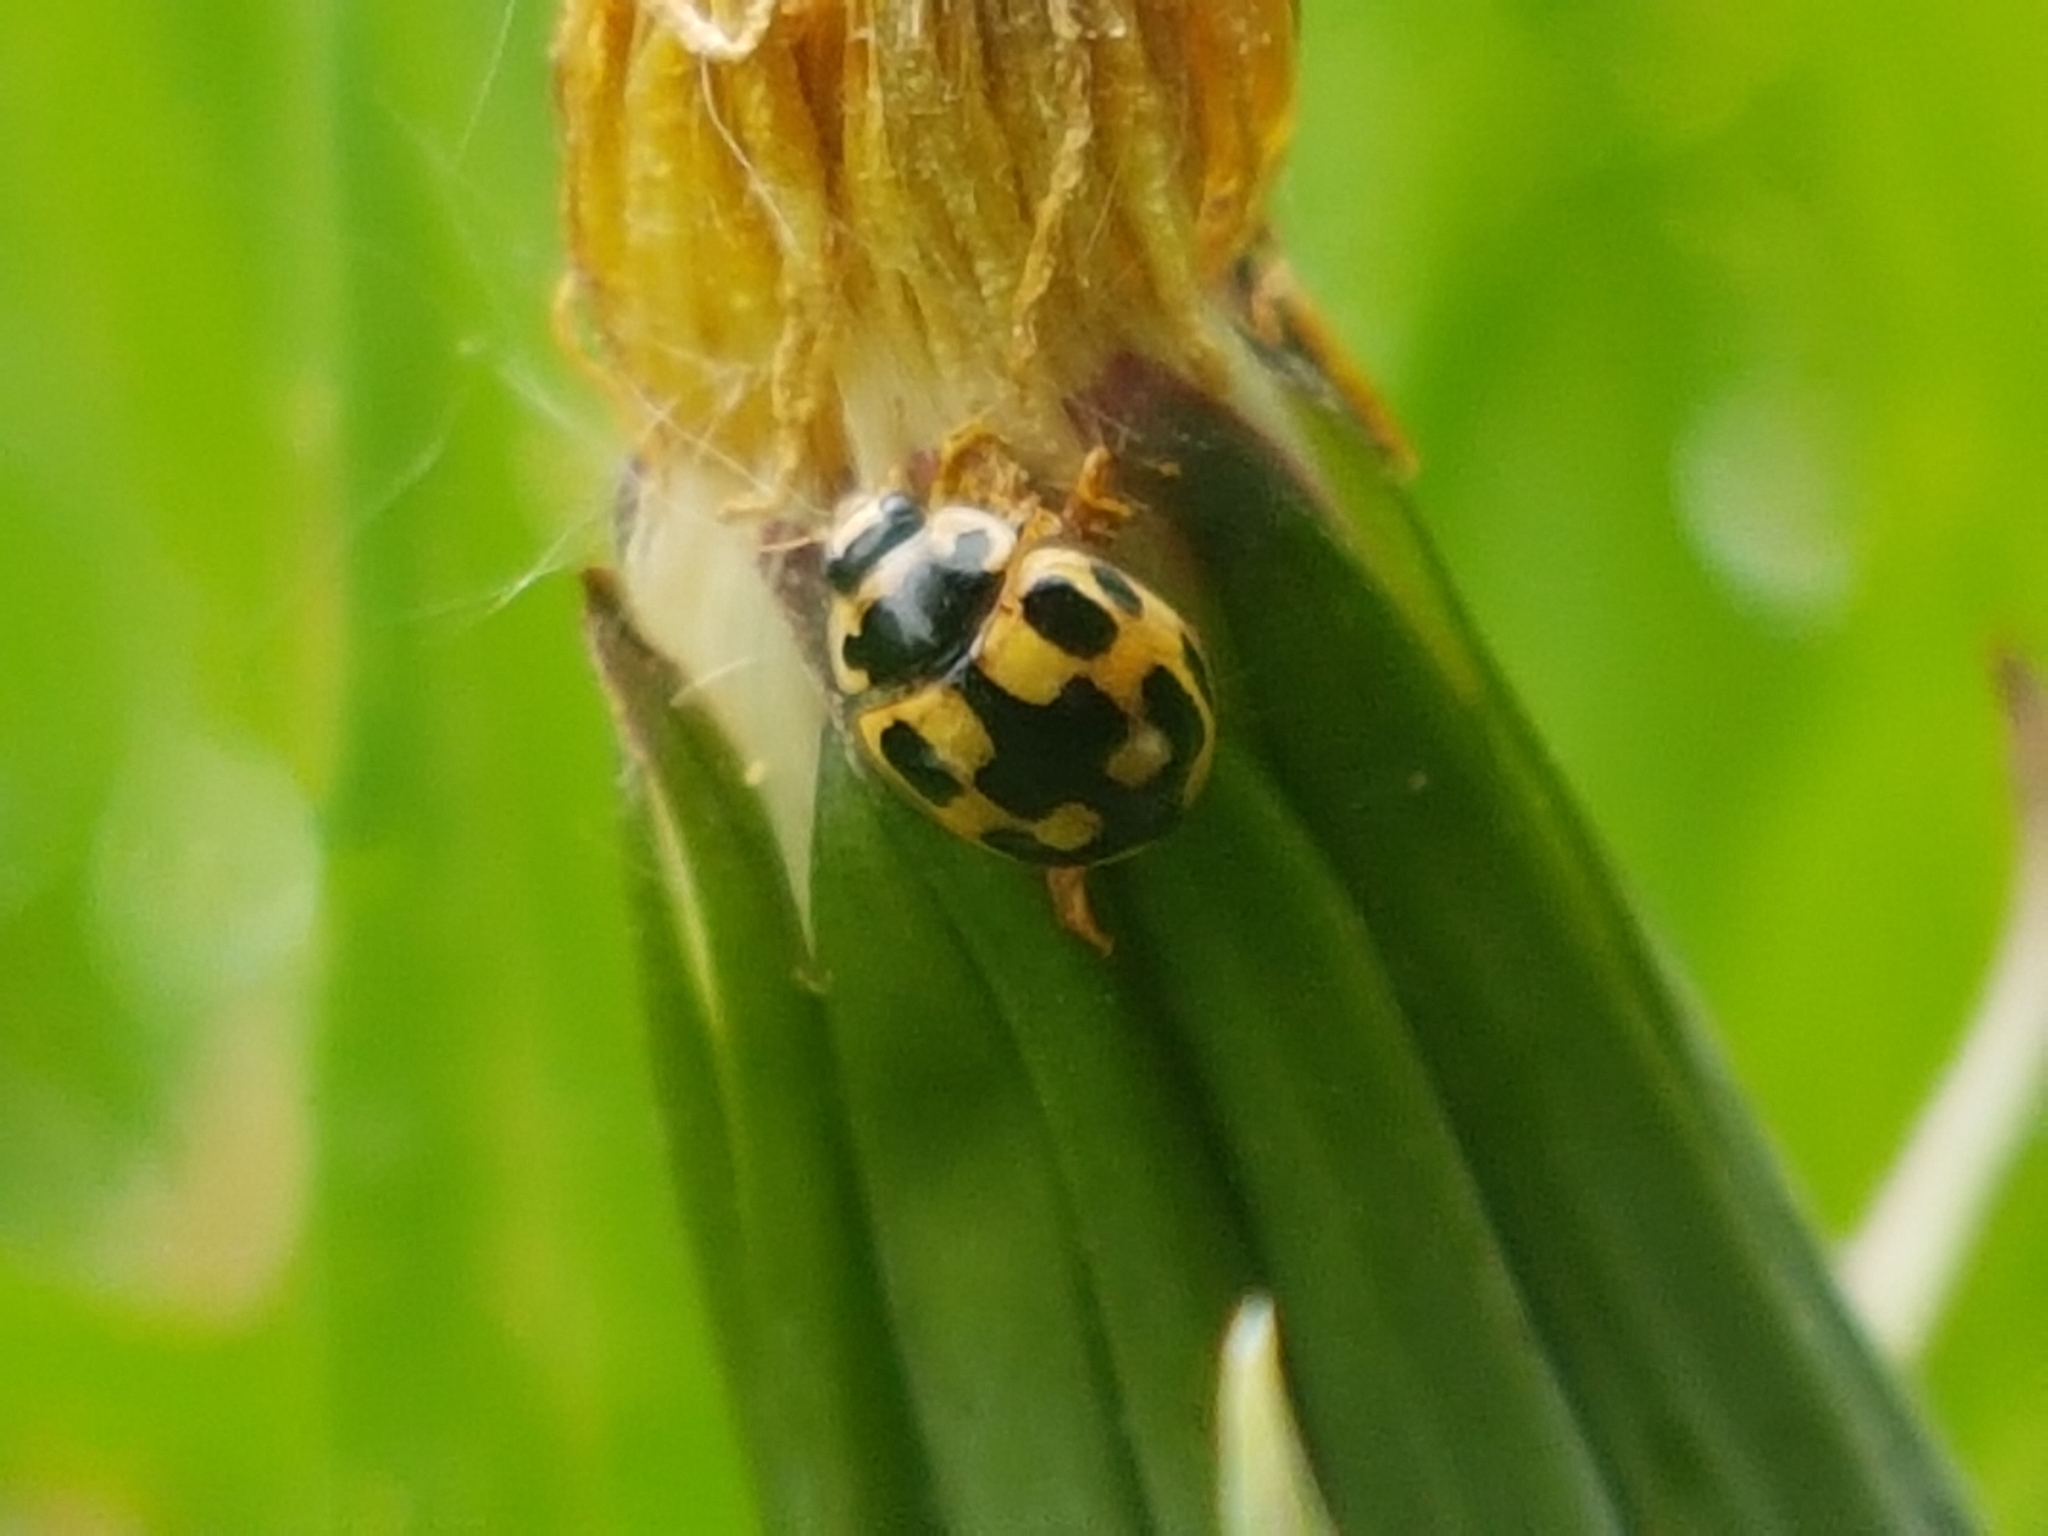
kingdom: Animalia
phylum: Arthropoda
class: Insecta
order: Coleoptera
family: Coccinellidae
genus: Propylaea
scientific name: Propylaea quatuordecimpunctata
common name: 14-spotted ladybird beetle
